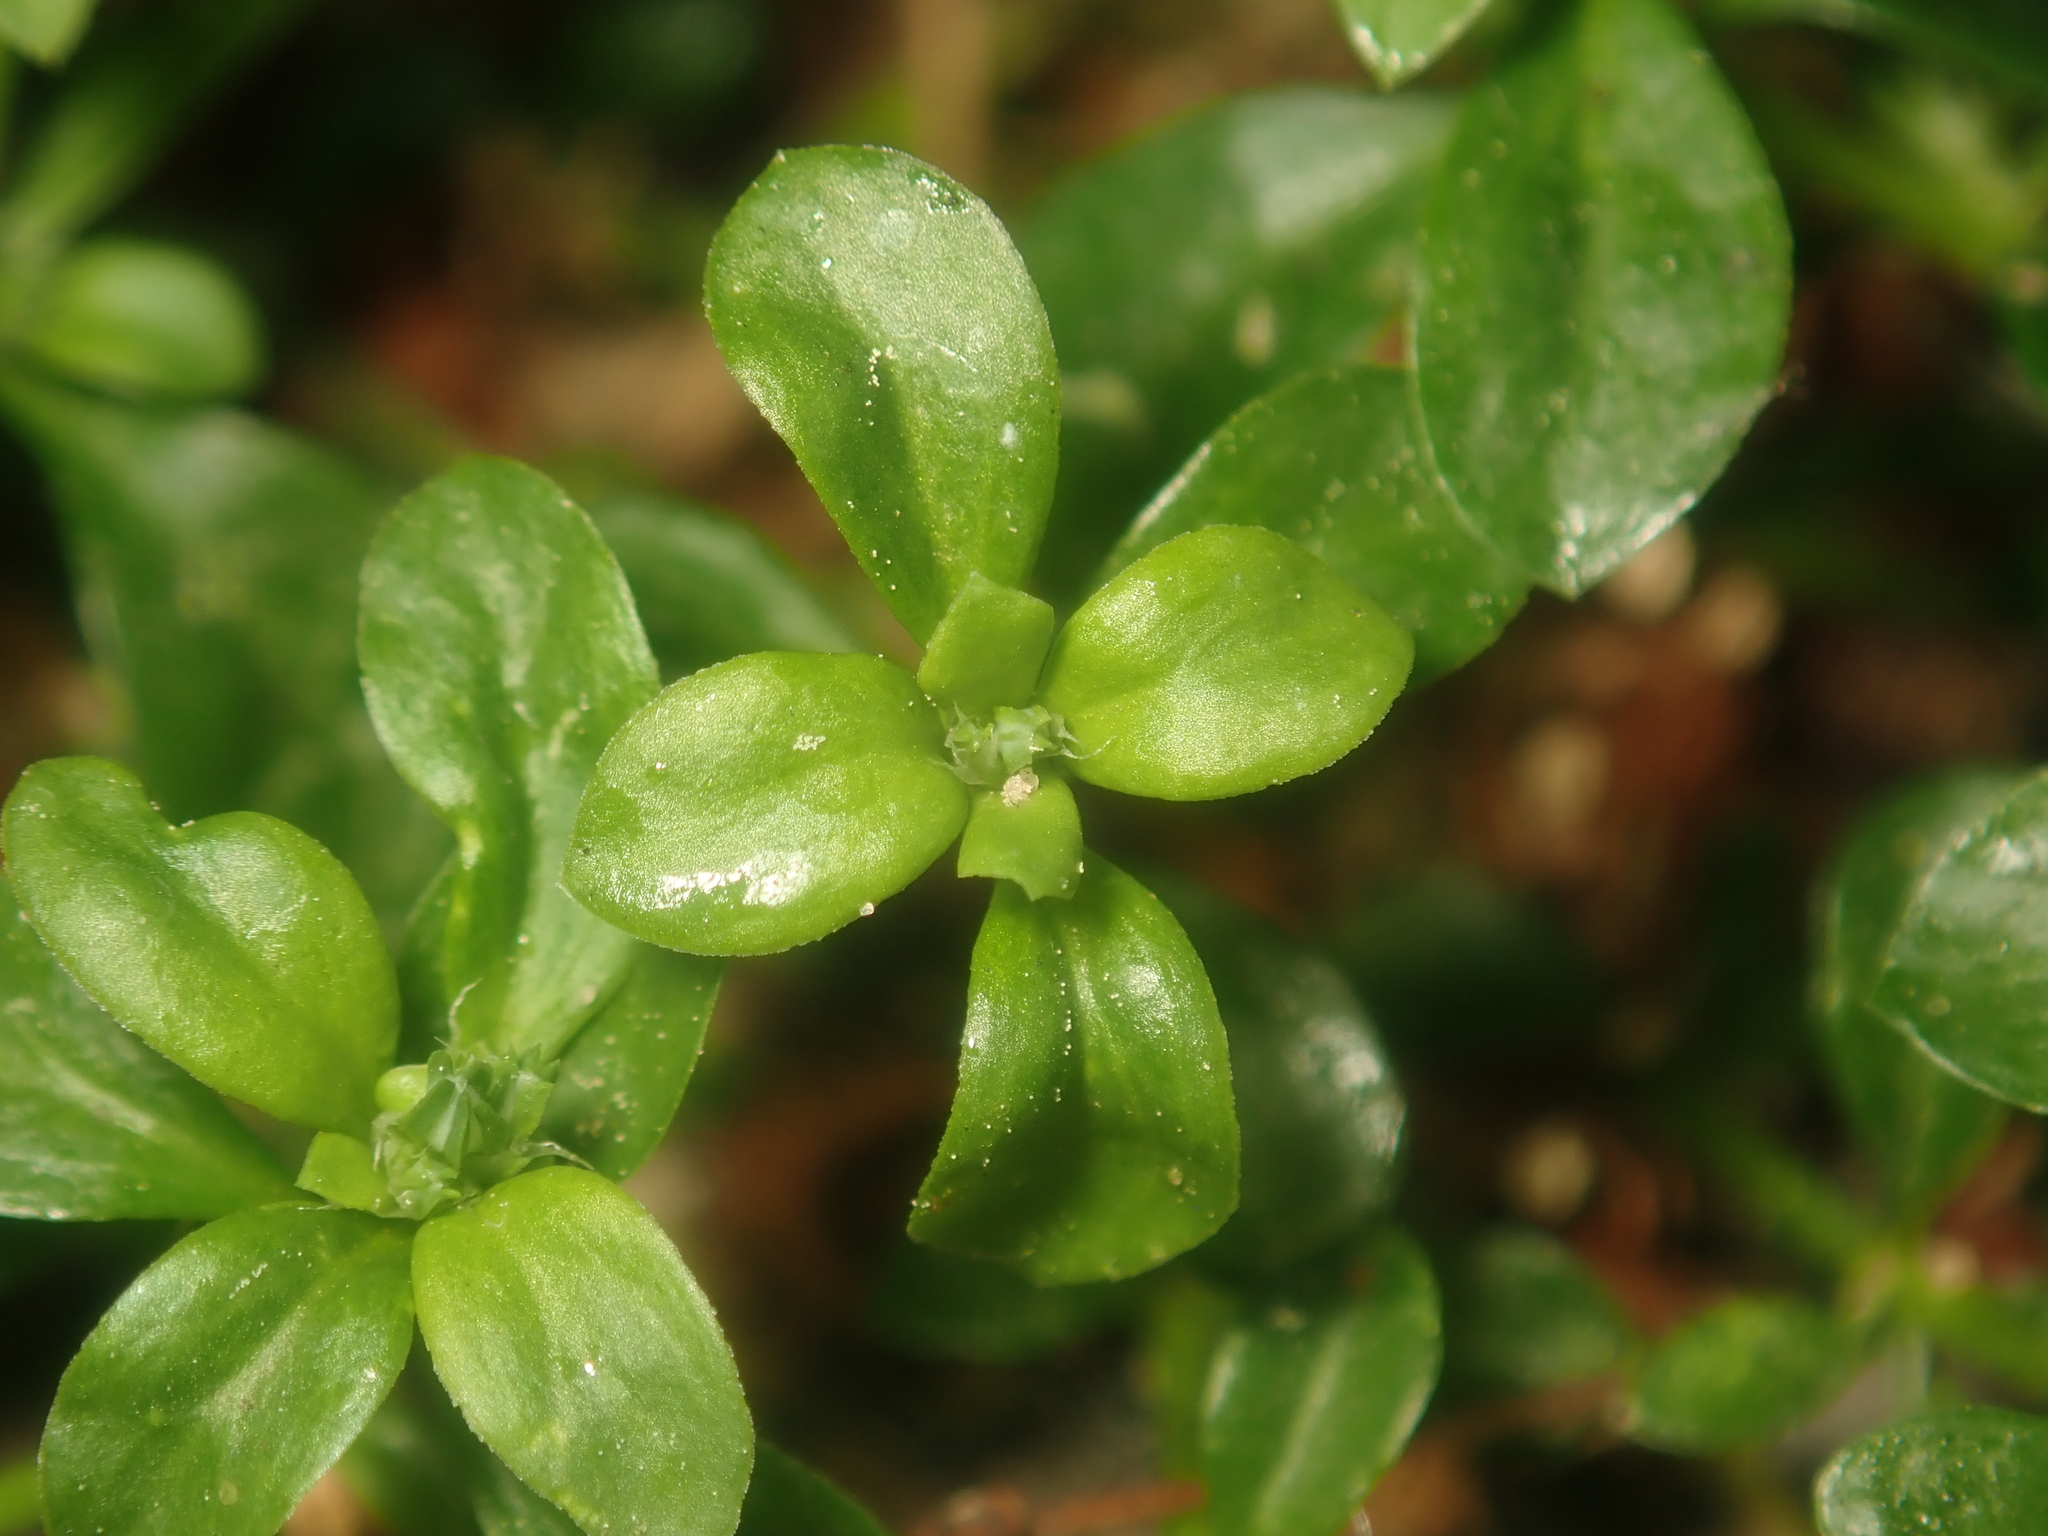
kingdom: Plantae
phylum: Tracheophyta
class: Magnoliopsida
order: Caryophyllales
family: Caryophyllaceae
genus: Polycarpon
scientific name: Polycarpon tetraphyllum
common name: Four-leaved all-seed
